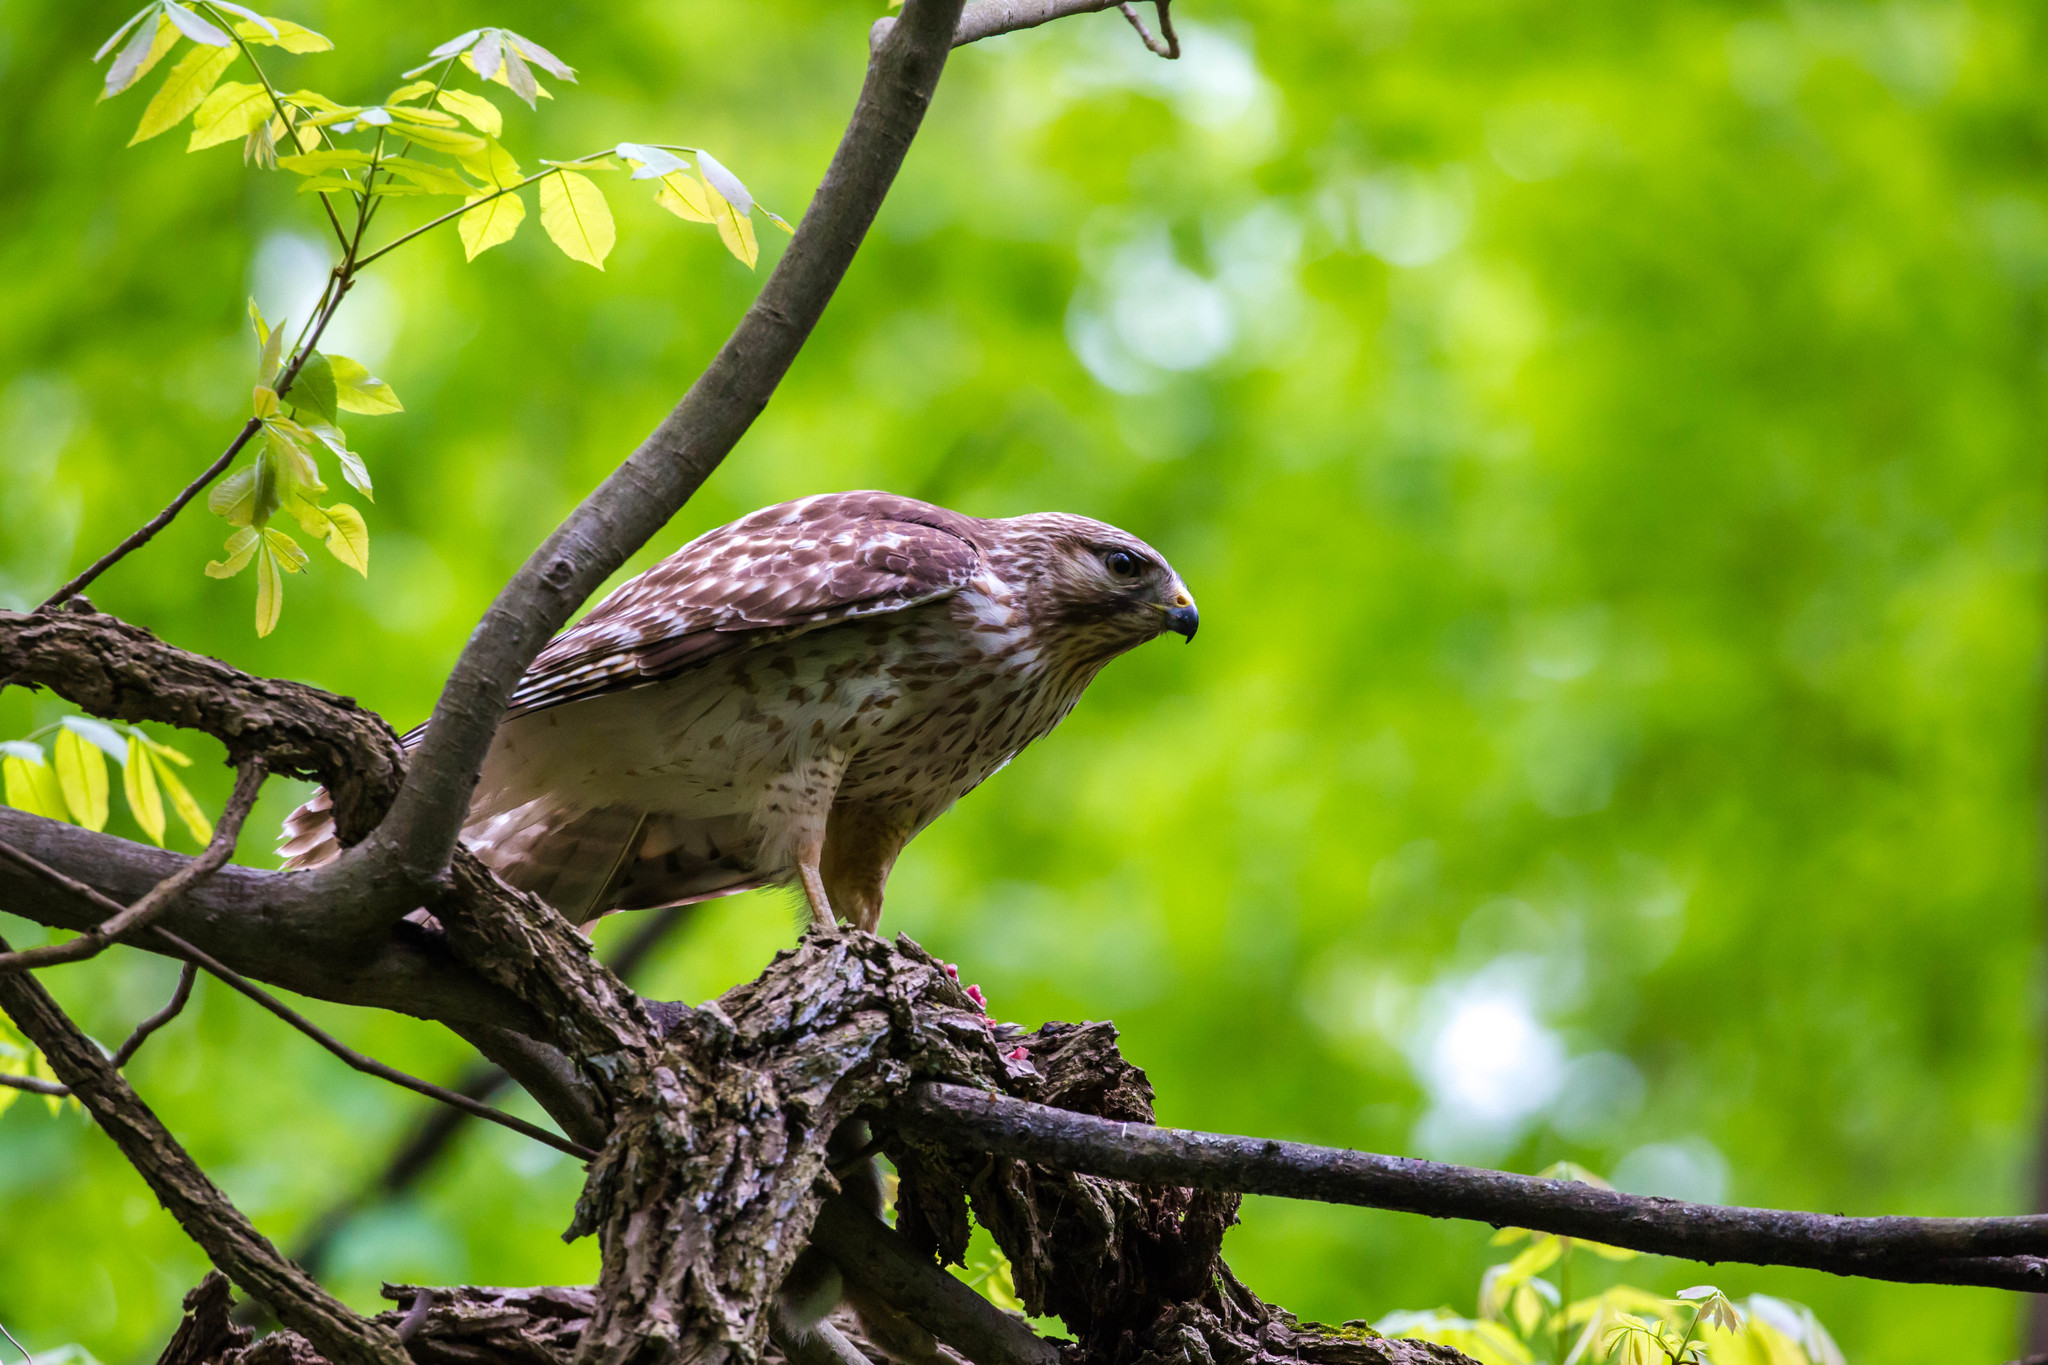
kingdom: Animalia
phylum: Chordata
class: Aves
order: Accipitriformes
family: Accipitridae
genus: Buteo
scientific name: Buteo lineatus
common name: Red-shouldered hawk
